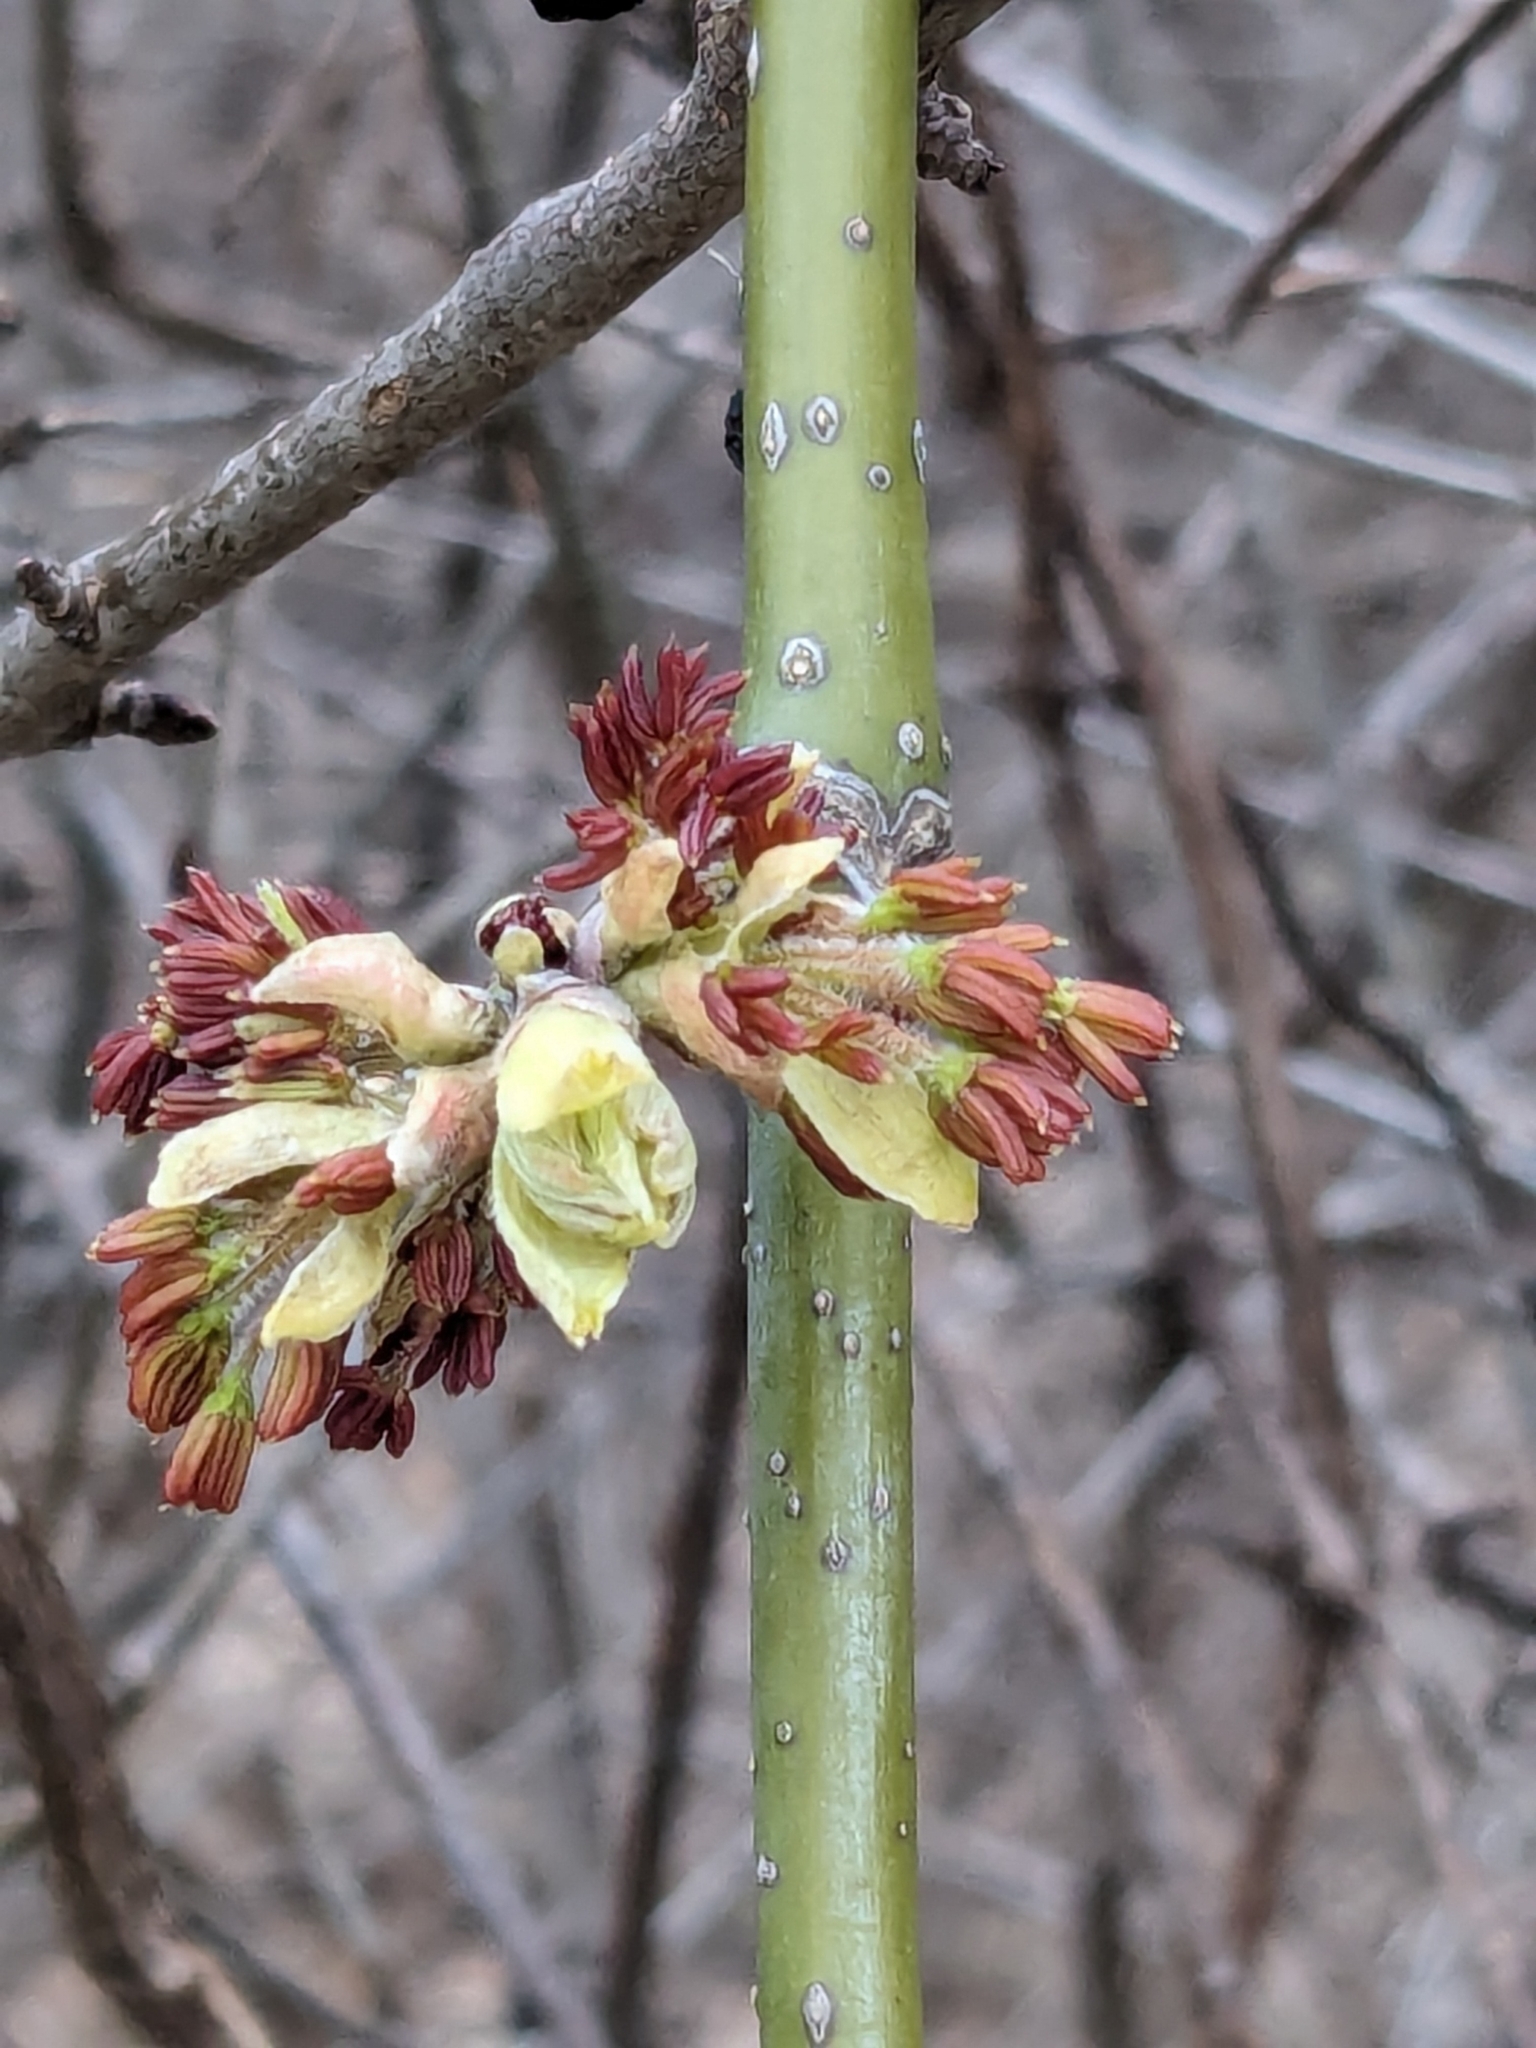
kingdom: Plantae
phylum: Tracheophyta
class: Magnoliopsida
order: Sapindales
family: Sapindaceae
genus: Acer
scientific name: Acer negundo
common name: Ashleaf maple
